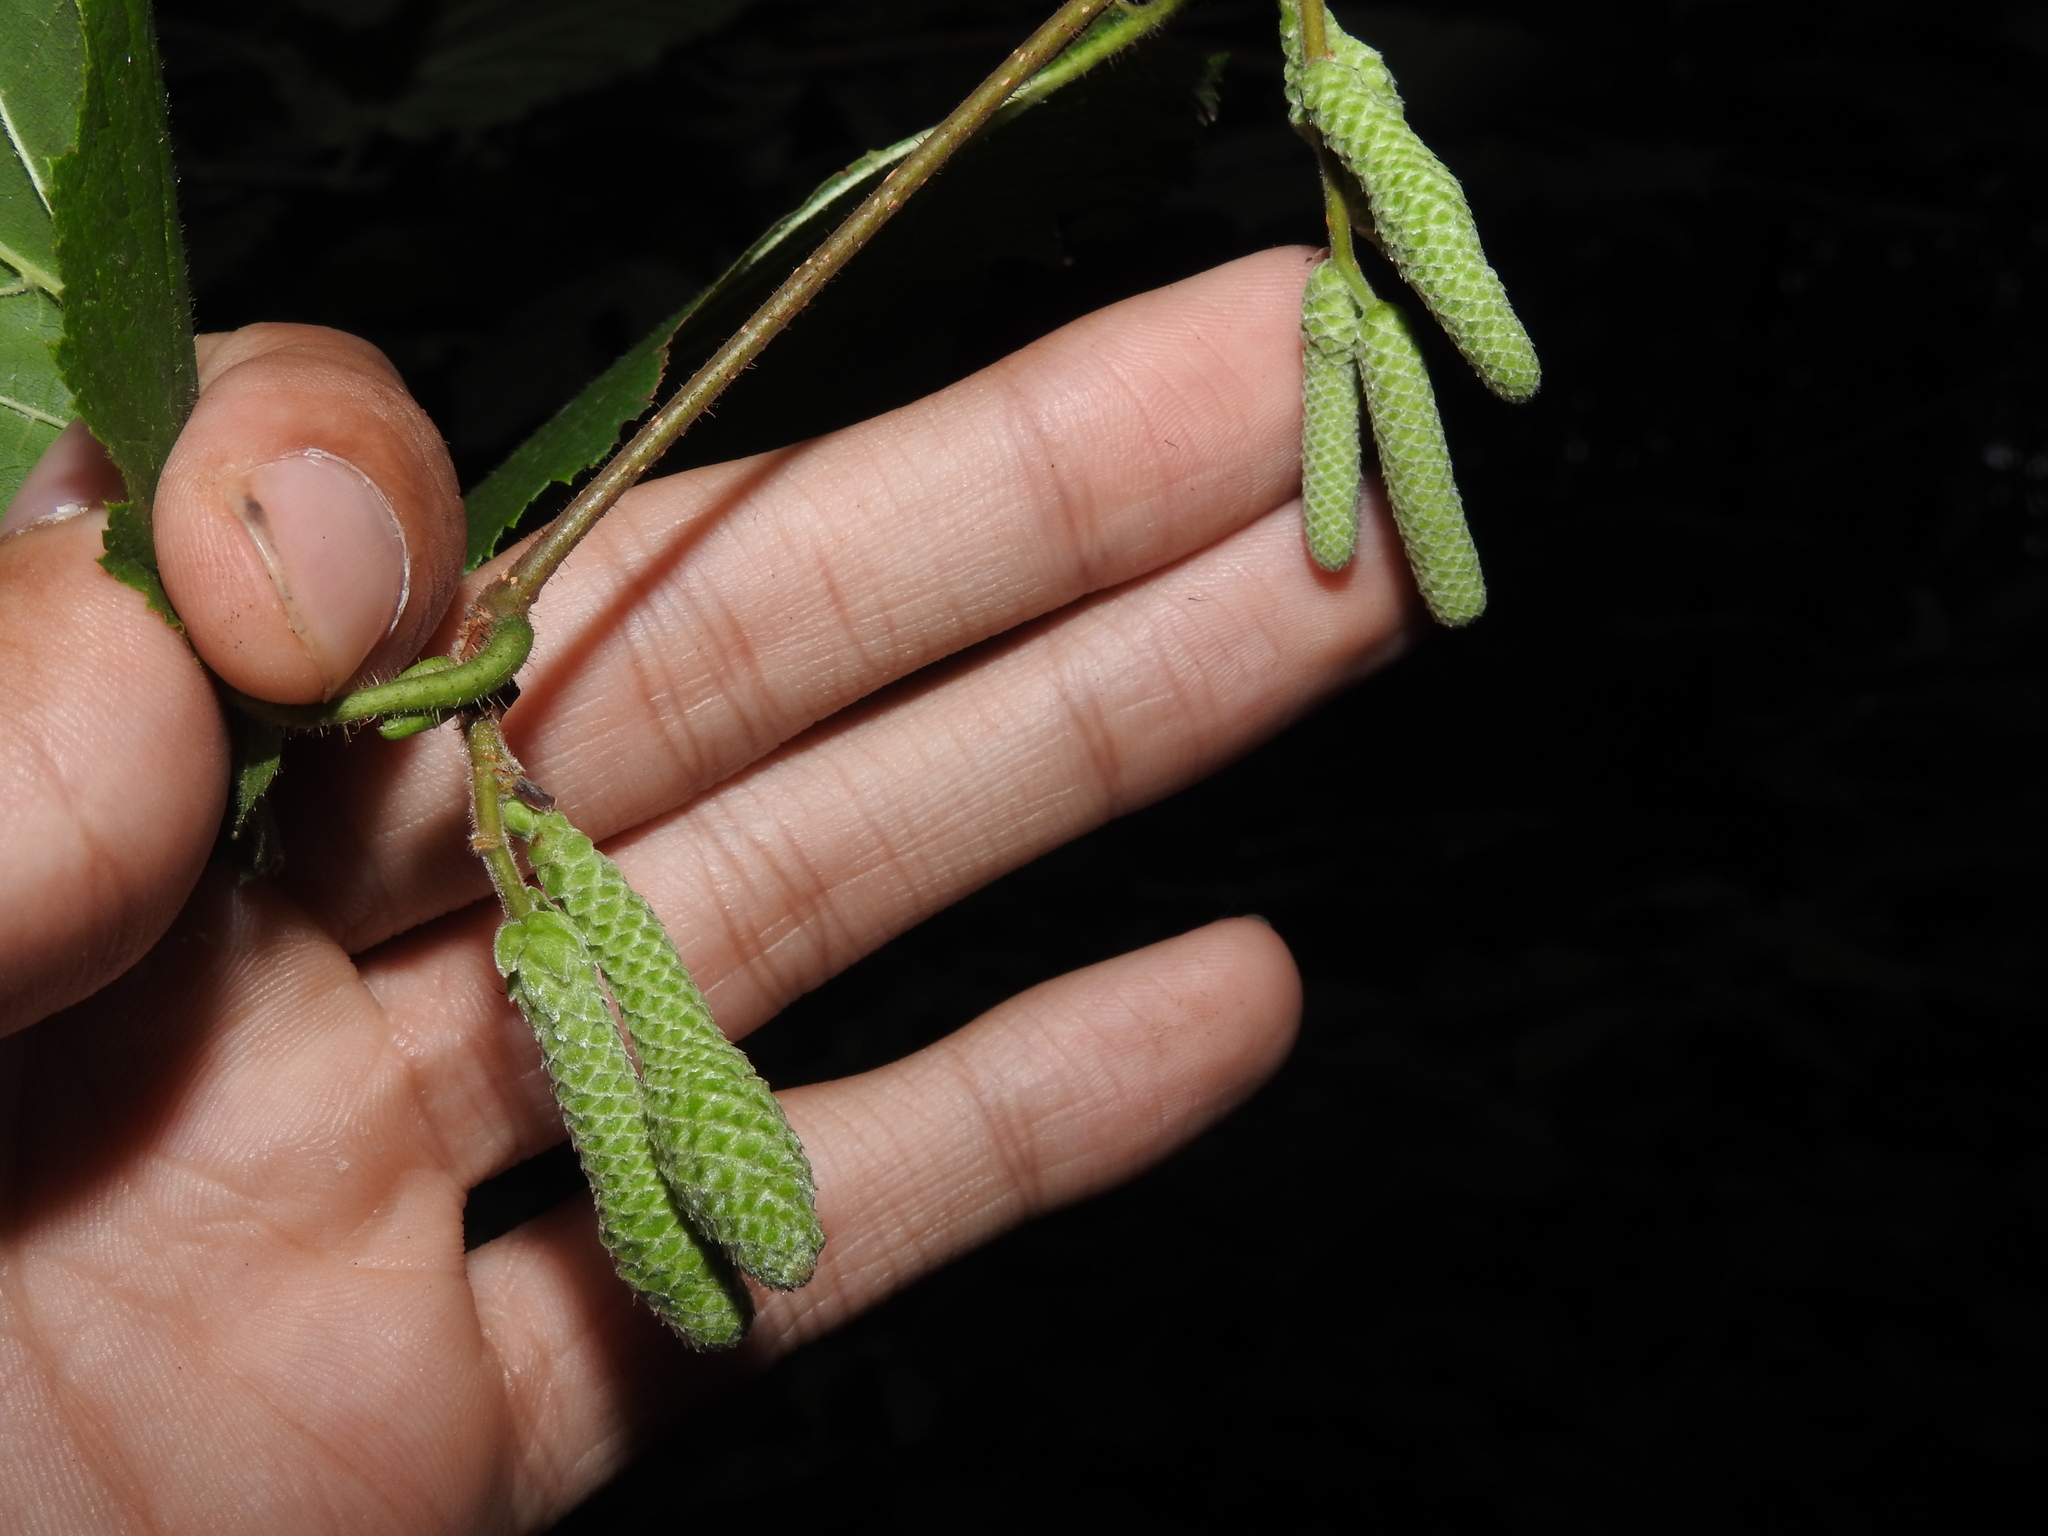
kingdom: Animalia
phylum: Arthropoda
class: Insecta
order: Diptera
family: Cecidomyiidae
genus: Contarinia
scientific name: Contarinia coryli
